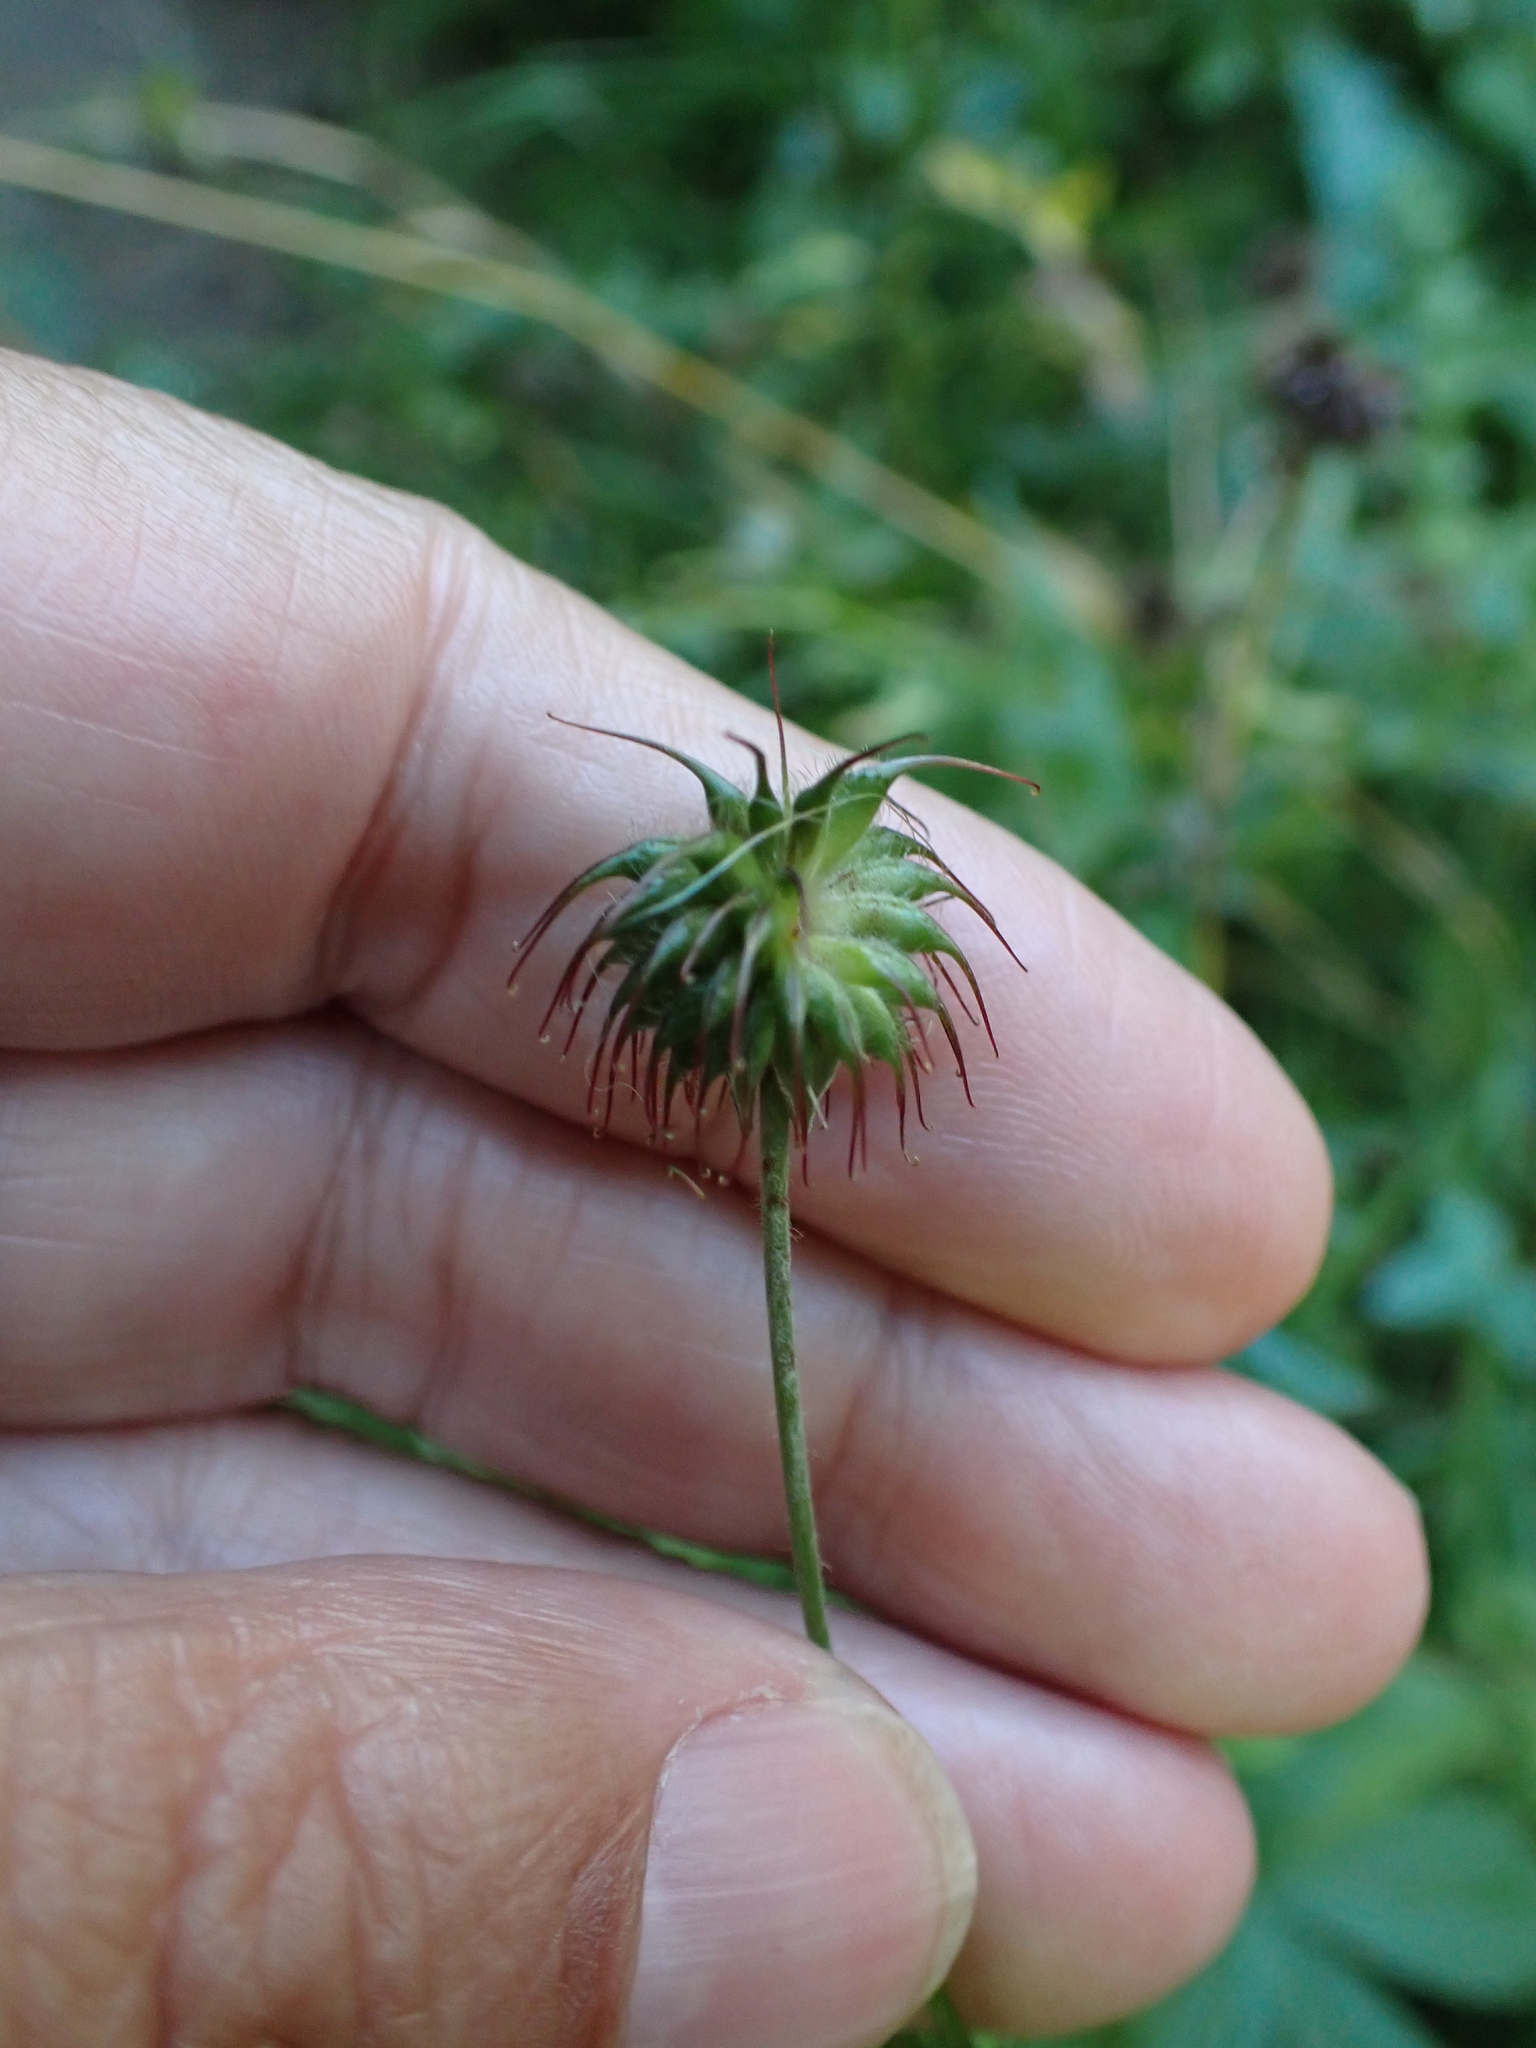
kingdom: Plantae
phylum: Tracheophyta
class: Magnoliopsida
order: Rosales
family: Rosaceae
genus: Geum
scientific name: Geum urbanum
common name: Wood avens
